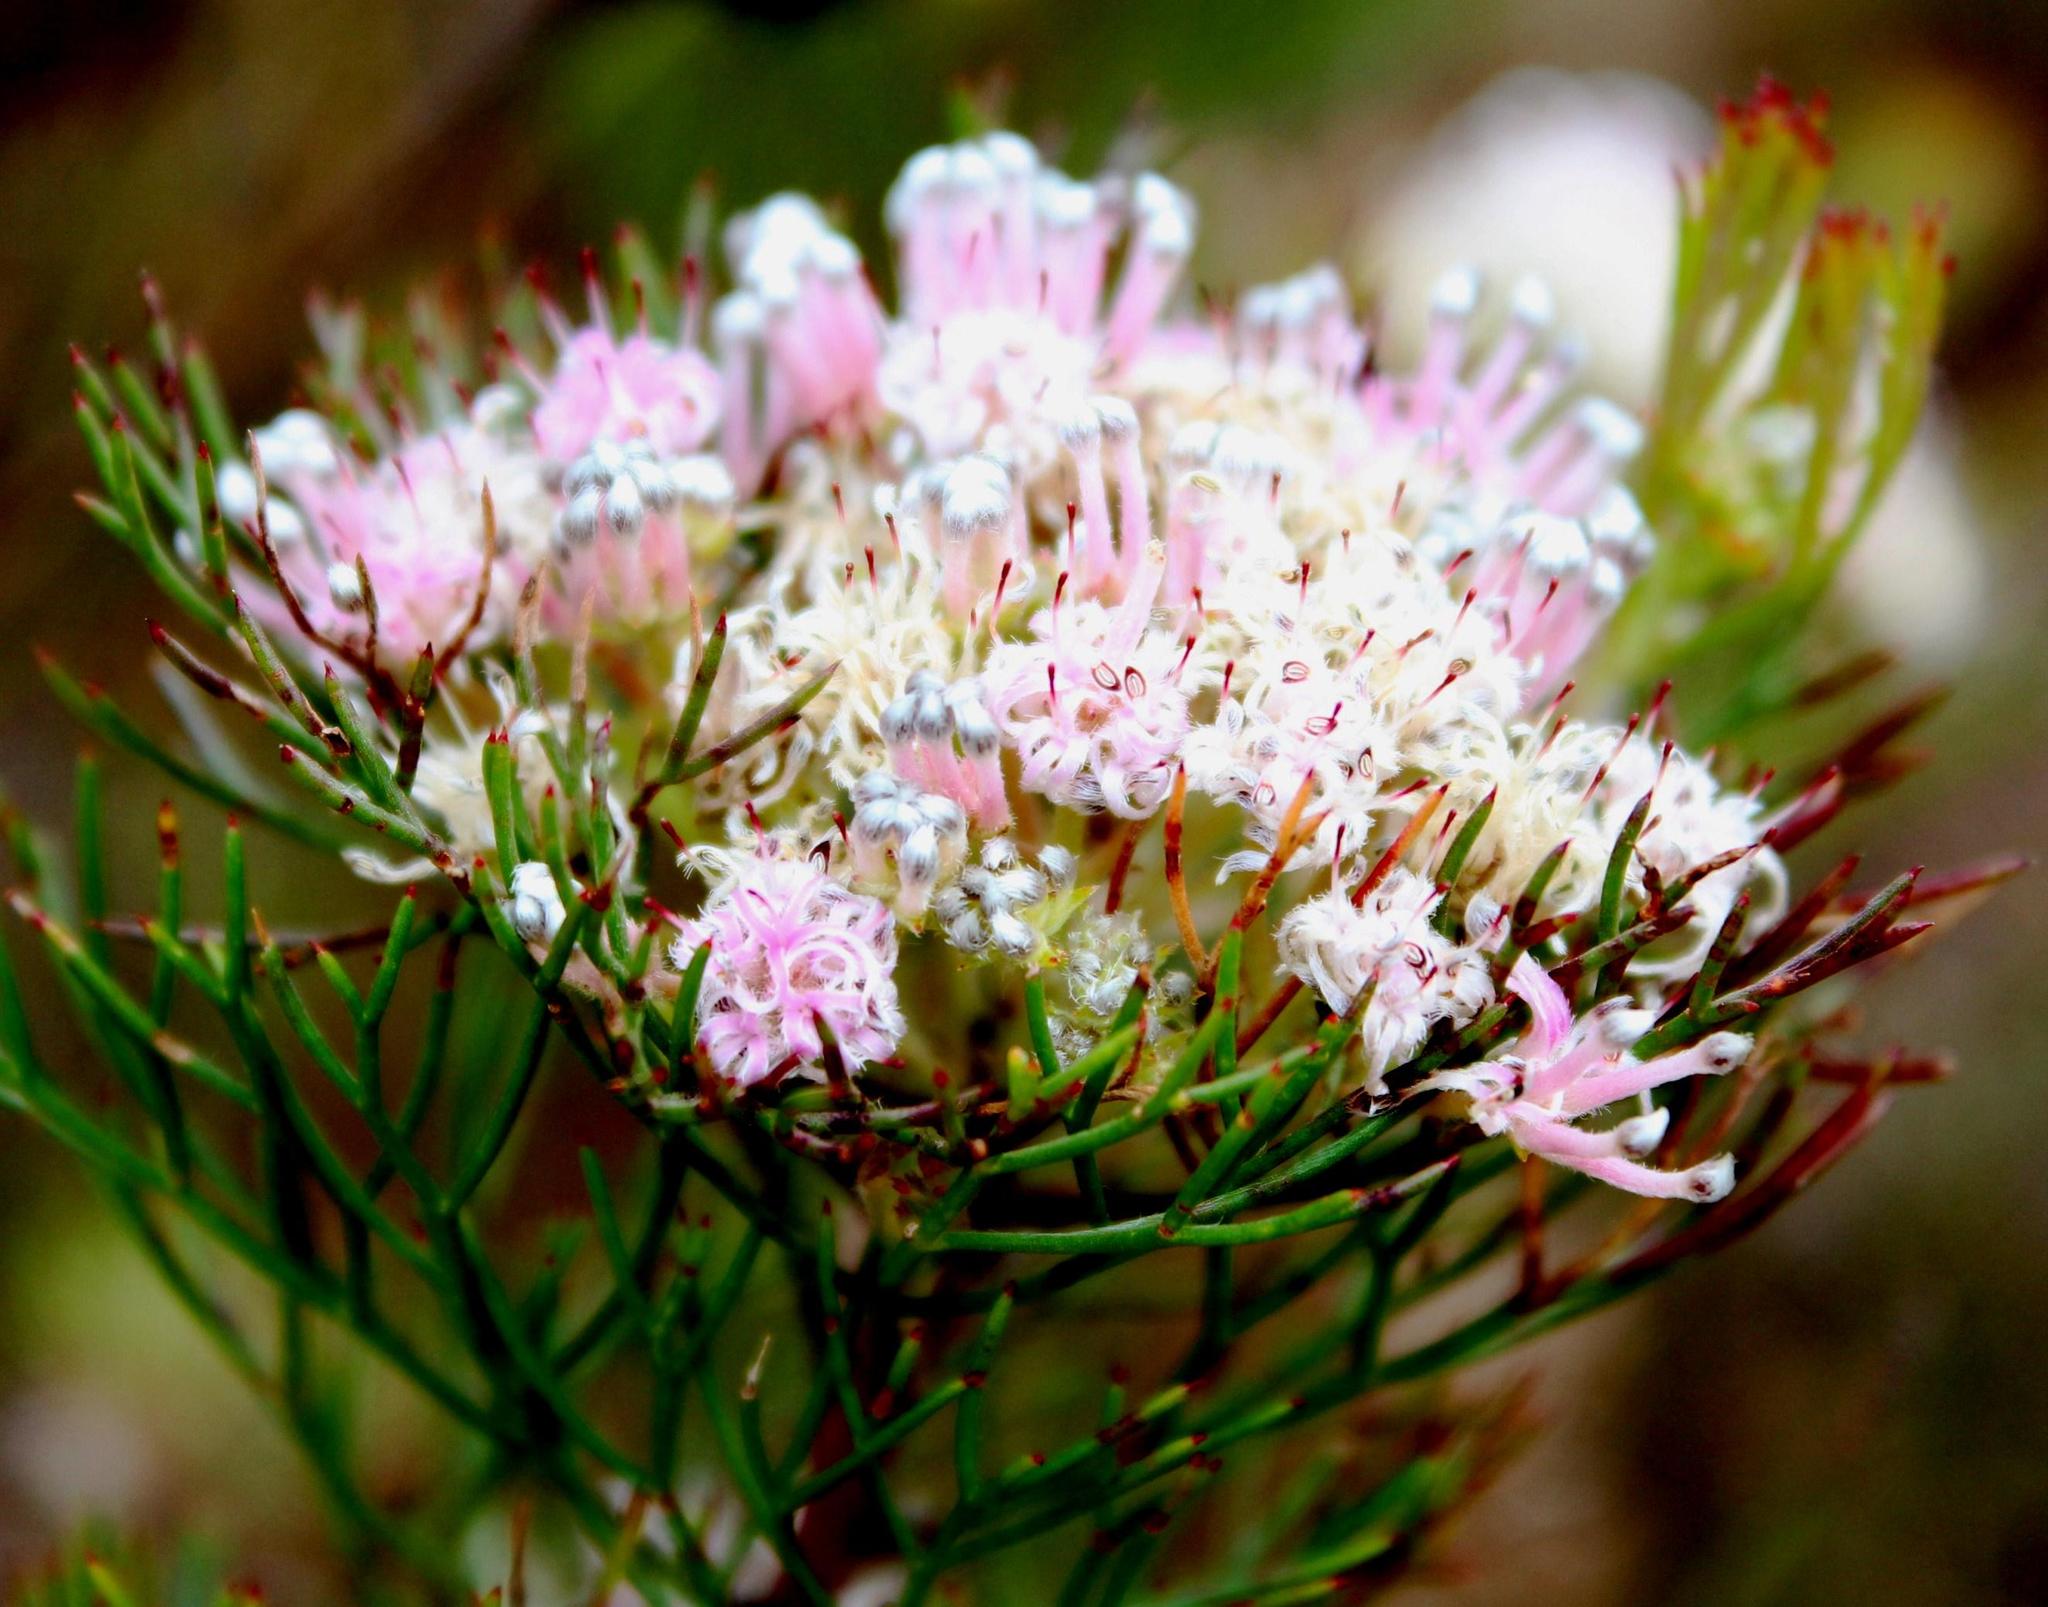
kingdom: Plantae
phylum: Tracheophyta
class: Magnoliopsida
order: Proteales
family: Proteaceae
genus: Serruria
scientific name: Serruria fasciflora
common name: Common pin spiderhead
